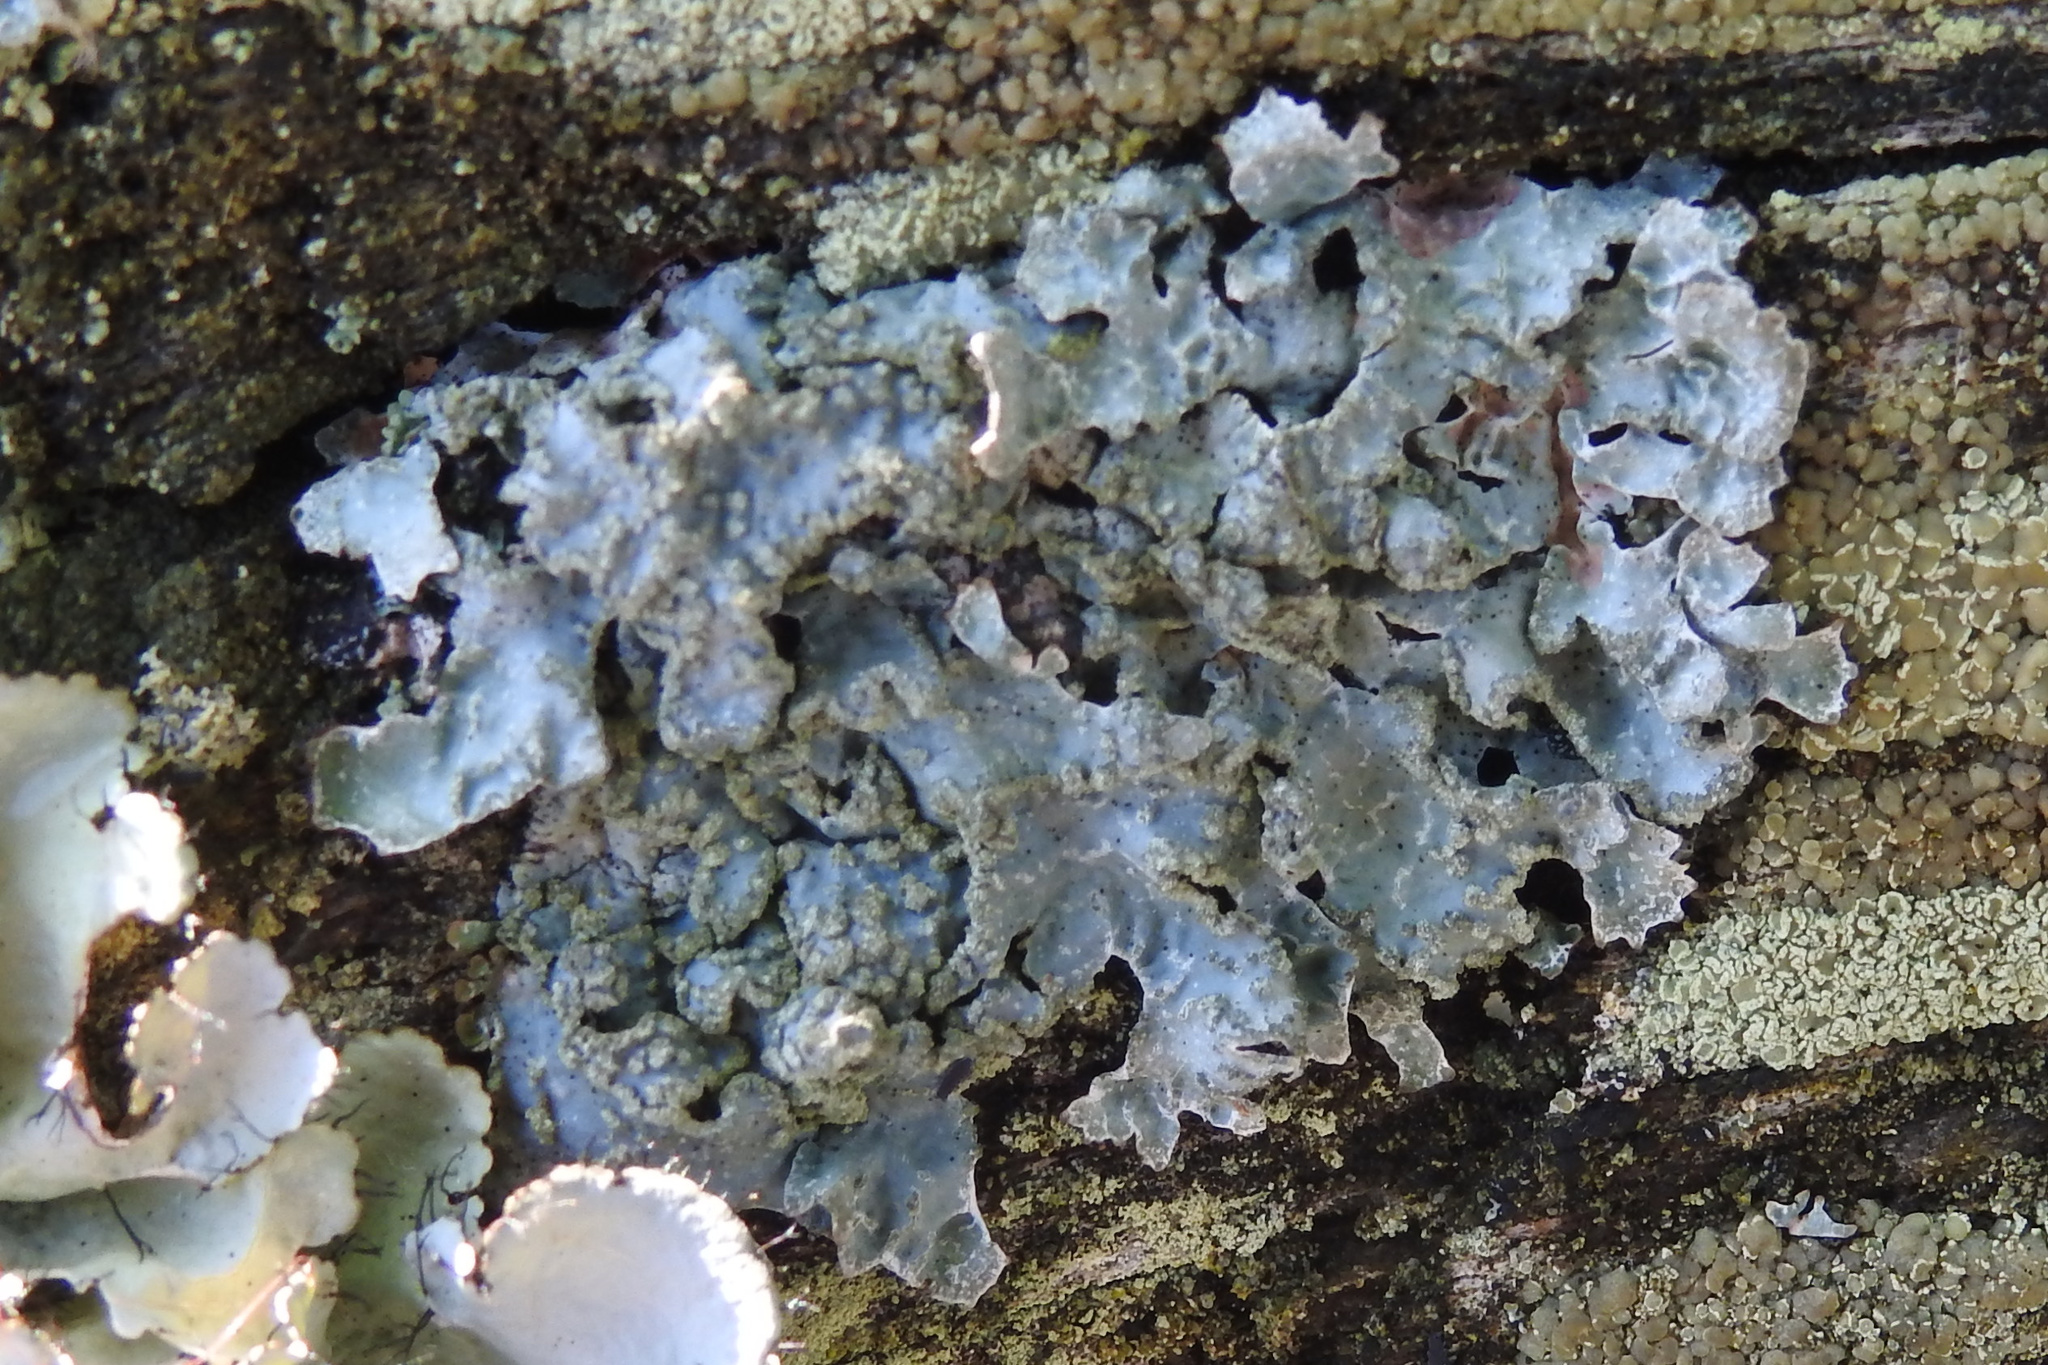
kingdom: Fungi
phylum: Ascomycota
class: Lecanoromycetes
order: Lecanorales
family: Parmeliaceae
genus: Parmelia
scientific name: Parmelia sulcata
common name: Netted shield lichen
